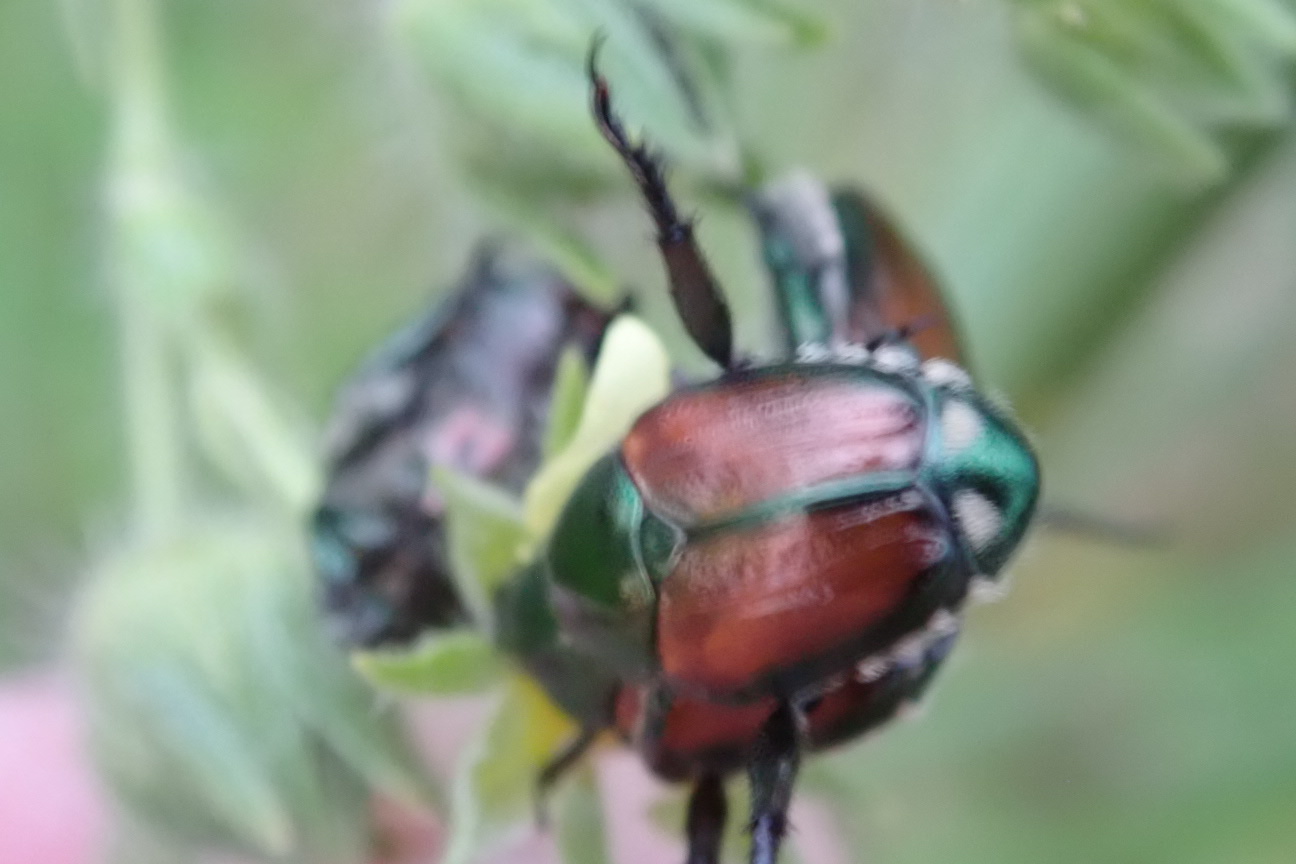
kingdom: Animalia
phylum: Arthropoda
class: Insecta
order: Coleoptera
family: Scarabaeidae
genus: Popillia
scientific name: Popillia japonica
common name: Japanese beetle
